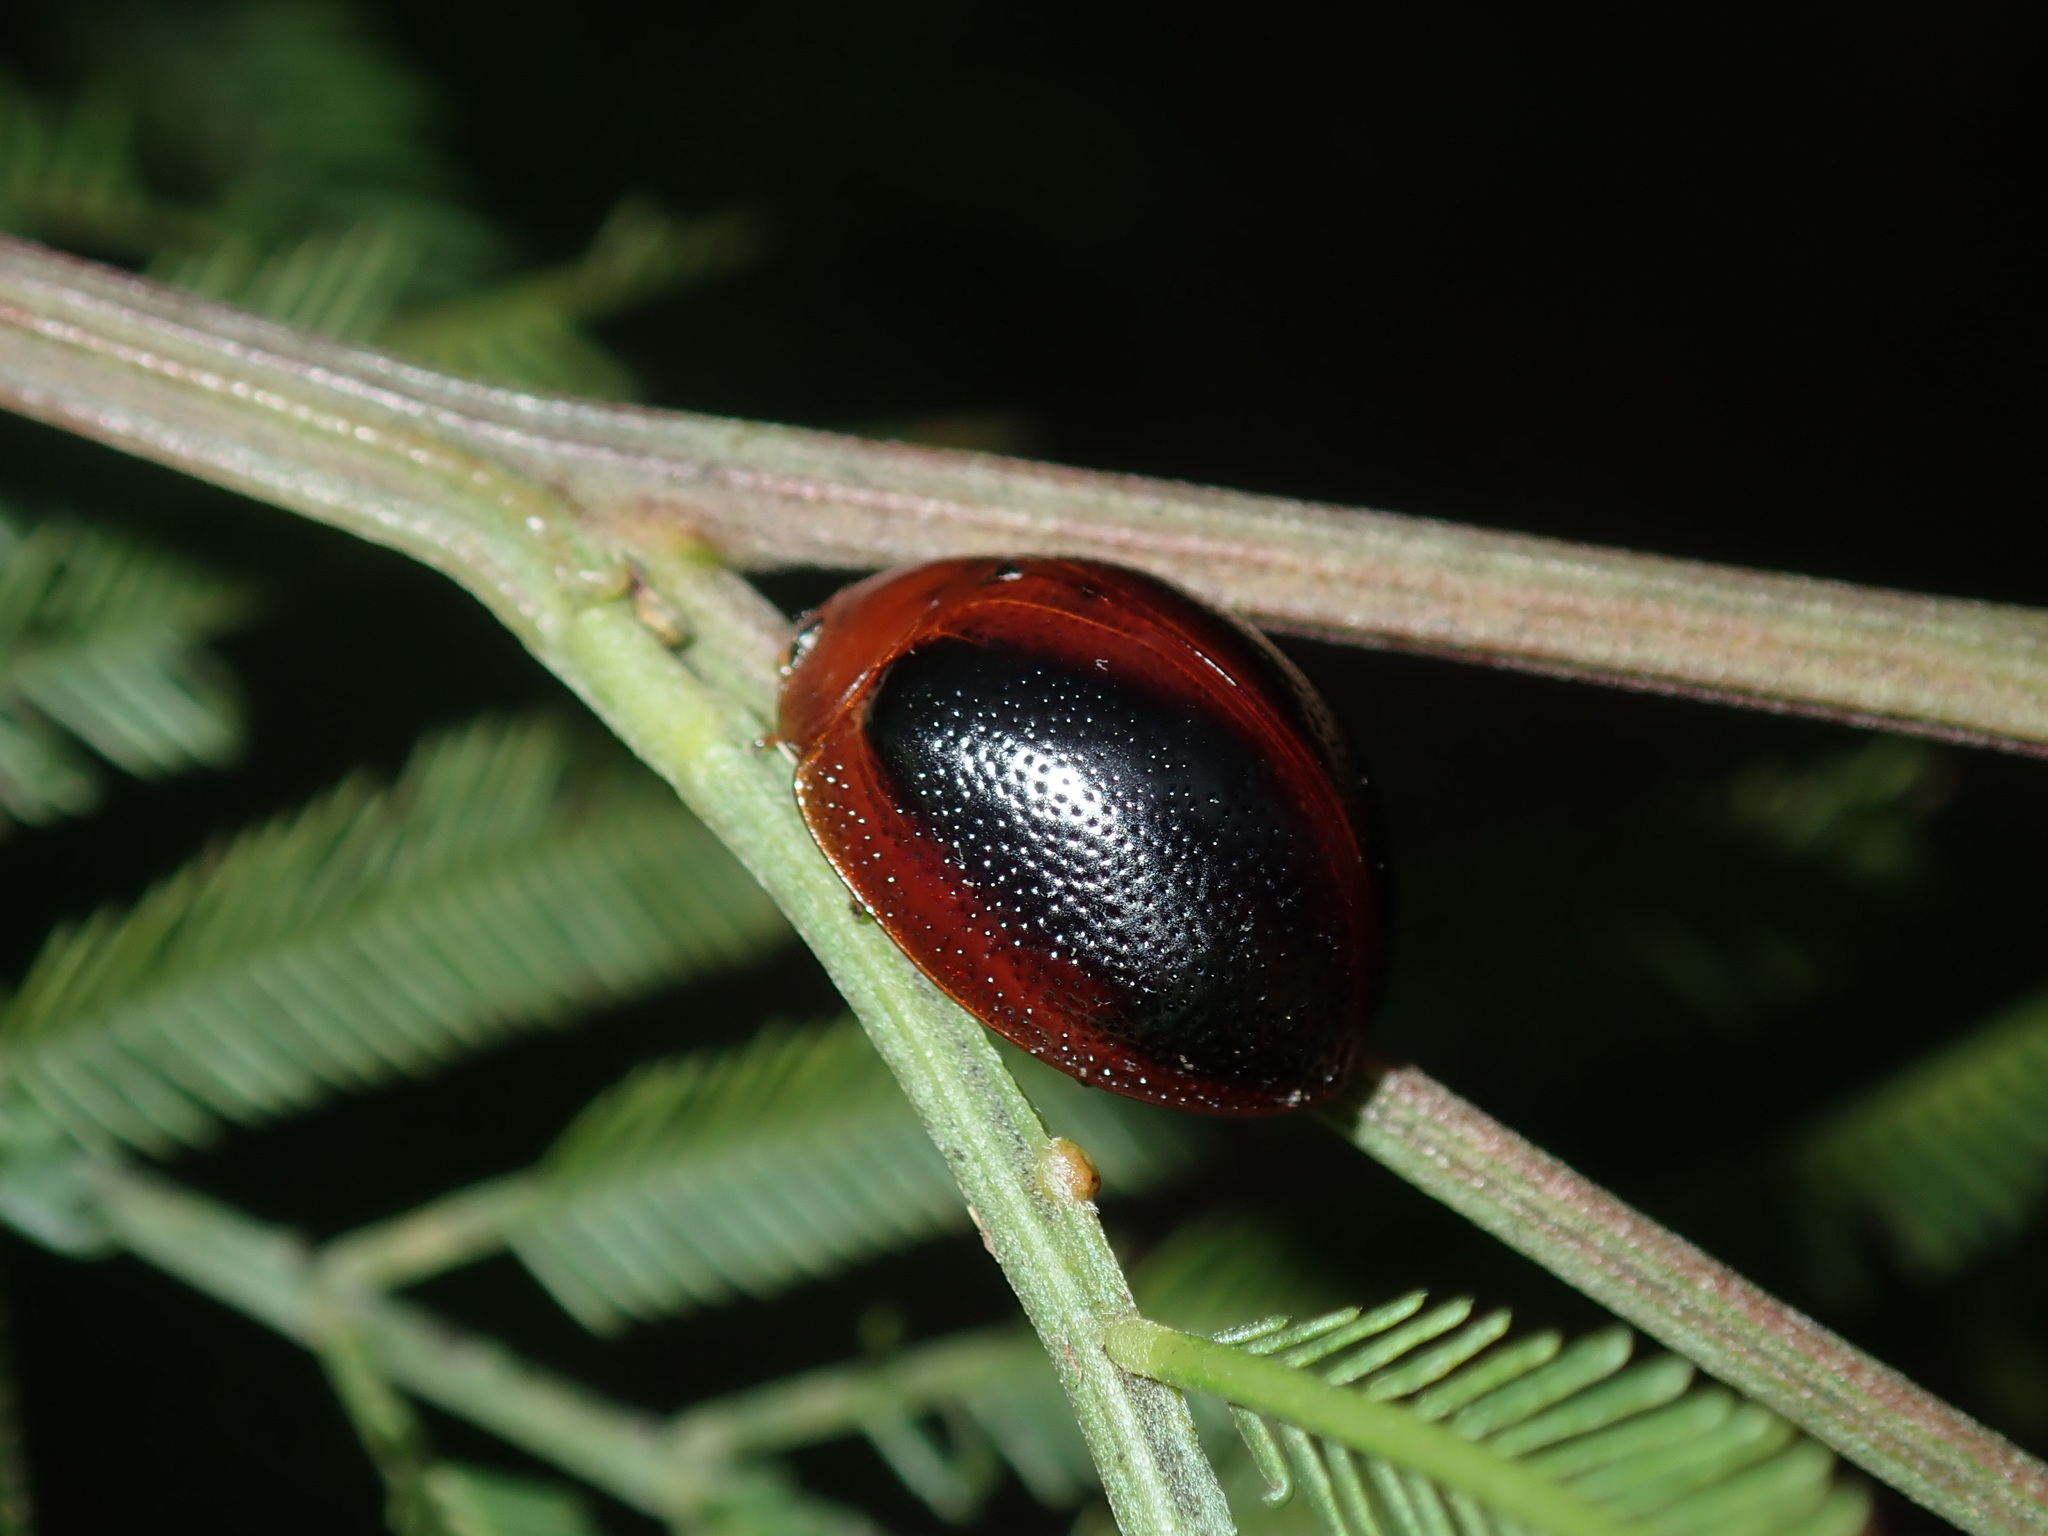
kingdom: Animalia
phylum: Arthropoda
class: Insecta
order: Coleoptera
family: Chrysomelidae
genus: Dicranosterna
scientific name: Dicranosterna
